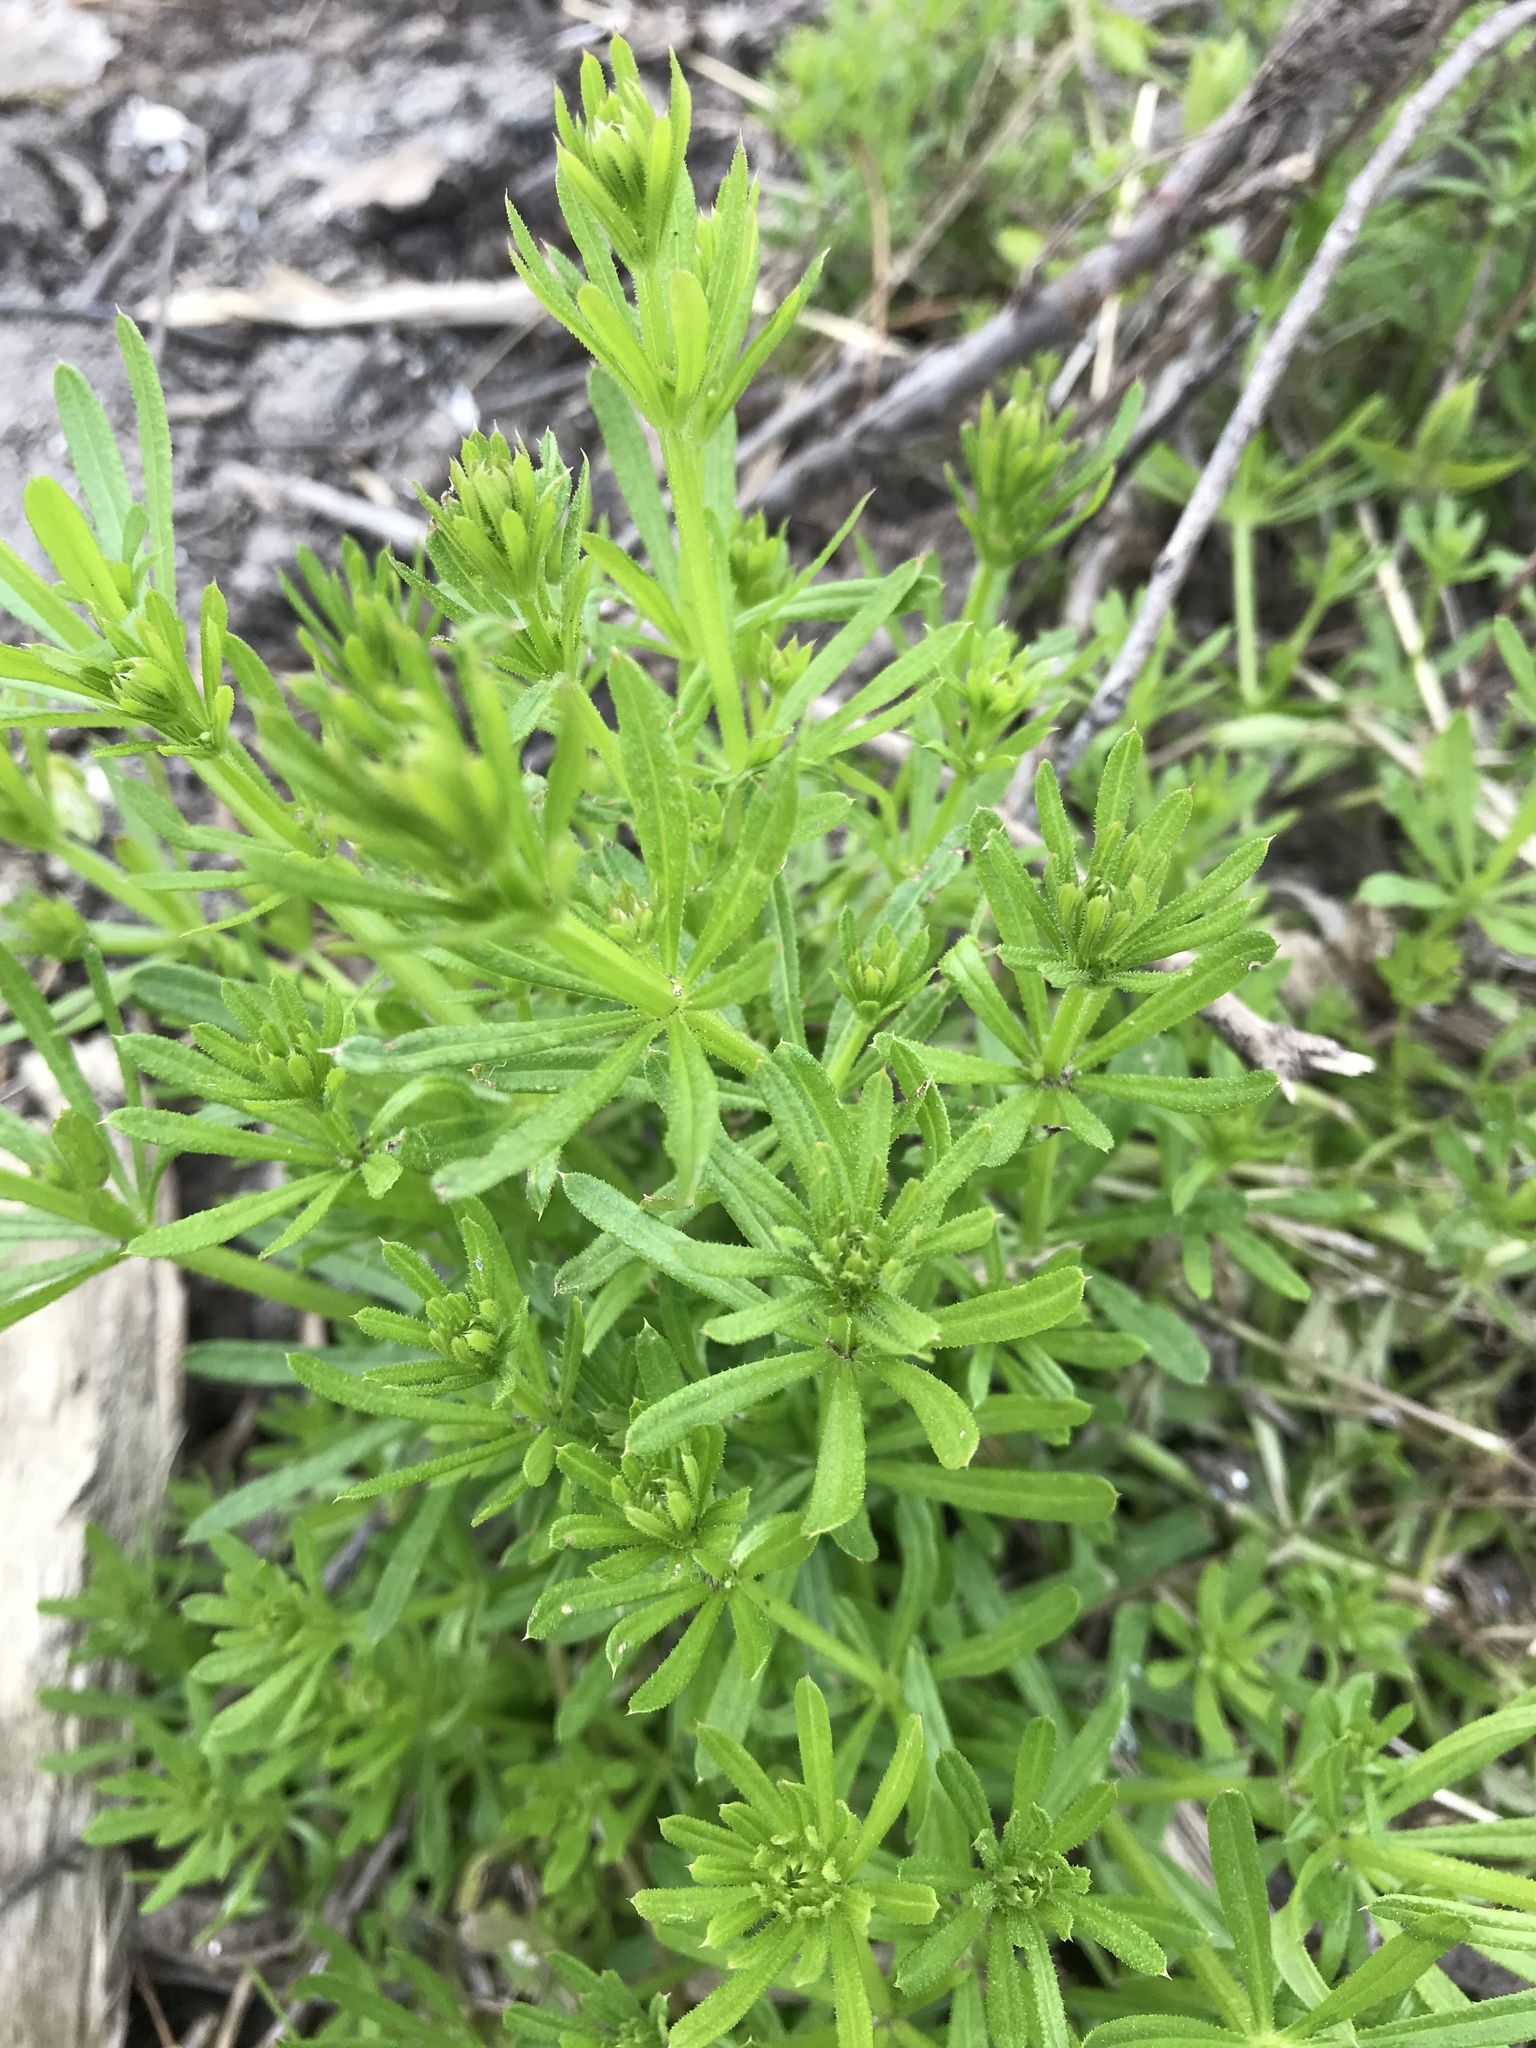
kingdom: Plantae
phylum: Tracheophyta
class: Magnoliopsida
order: Gentianales
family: Rubiaceae
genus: Galium
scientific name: Galium aparine
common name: Cleavers
